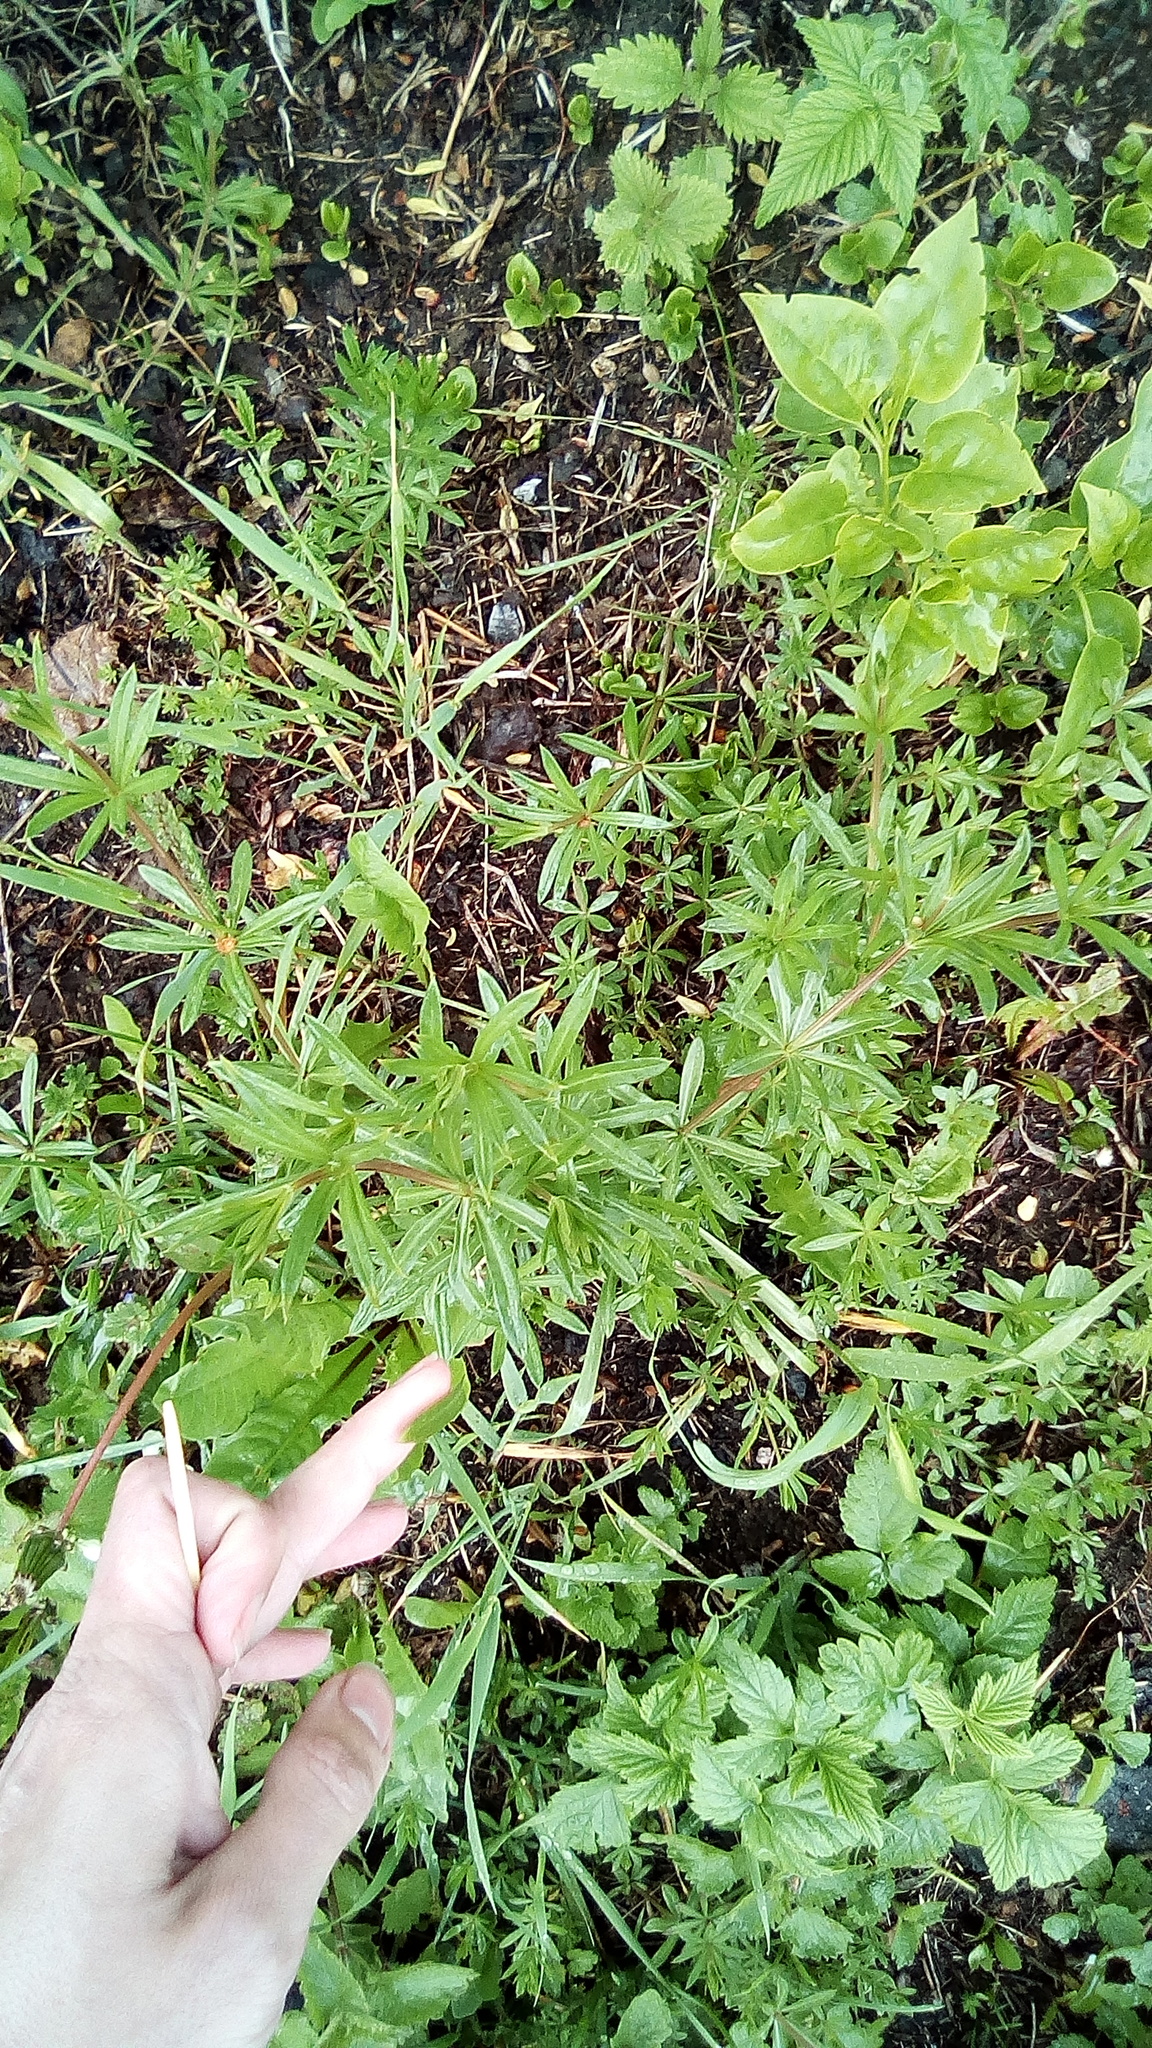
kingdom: Plantae
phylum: Tracheophyta
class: Magnoliopsida
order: Gentianales
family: Rubiaceae
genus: Galium
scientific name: Galium mollugo
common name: Hedge bedstraw
